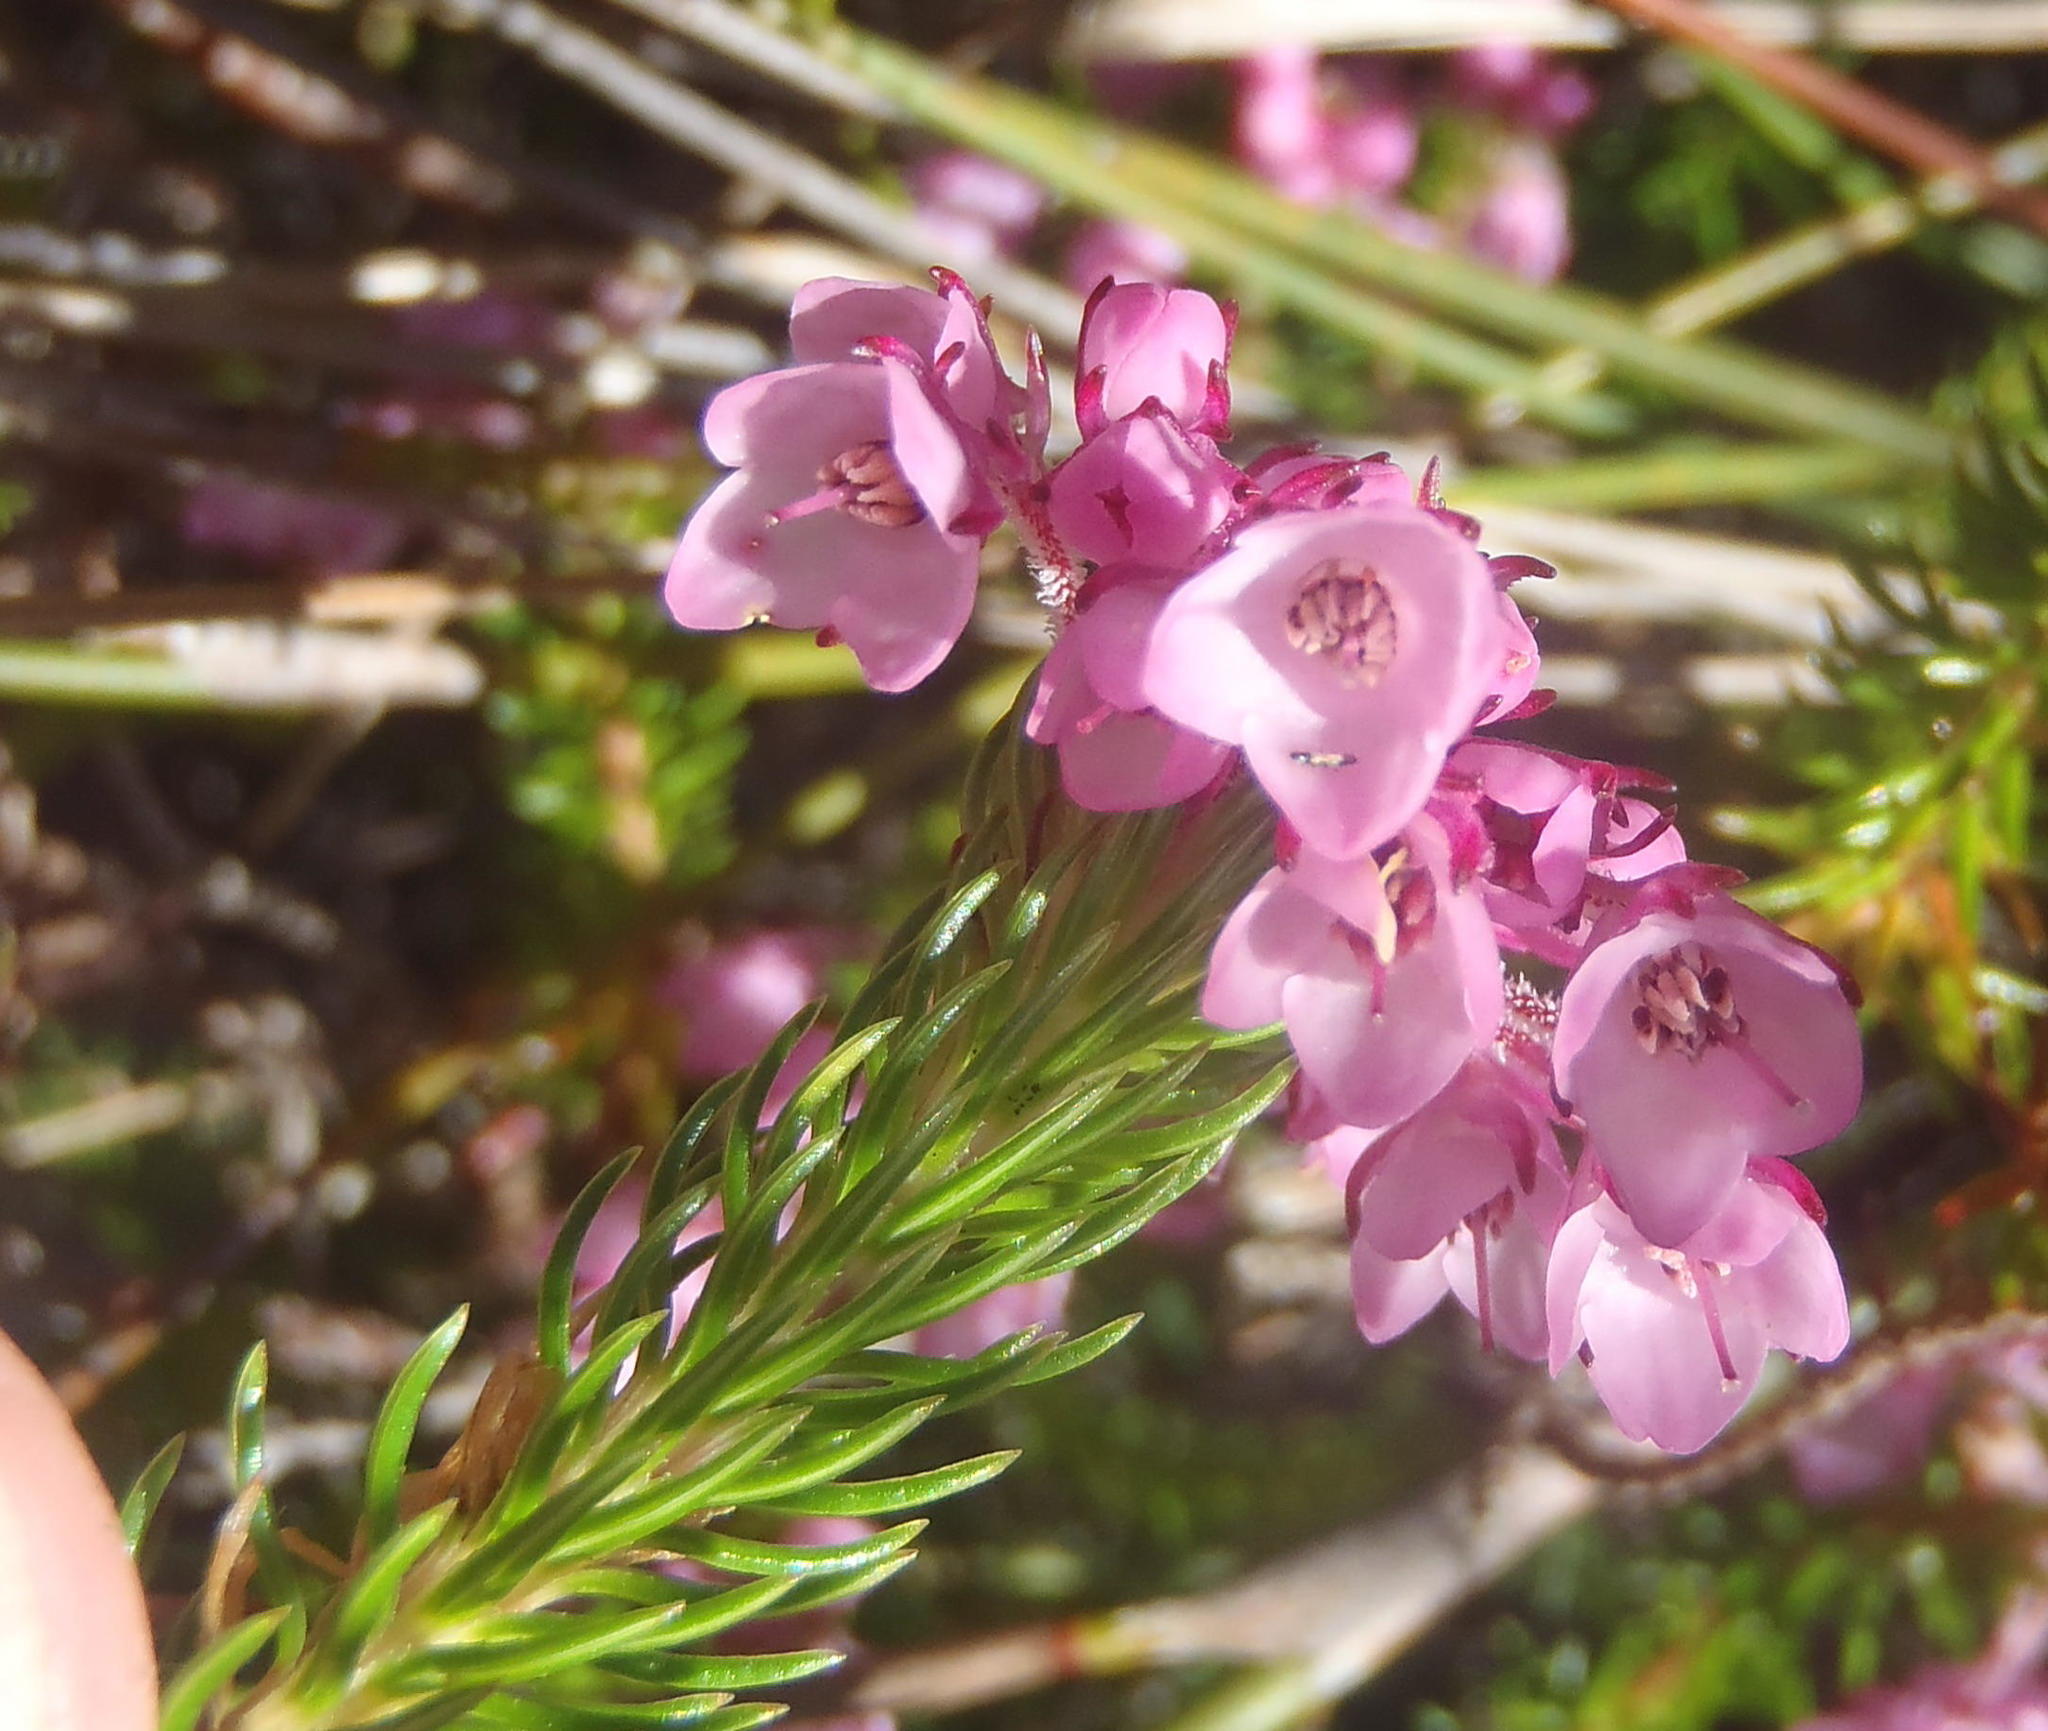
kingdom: Plantae
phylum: Tracheophyta
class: Magnoliopsida
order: Ericales
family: Ericaceae
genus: Erica
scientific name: Erica cubica
